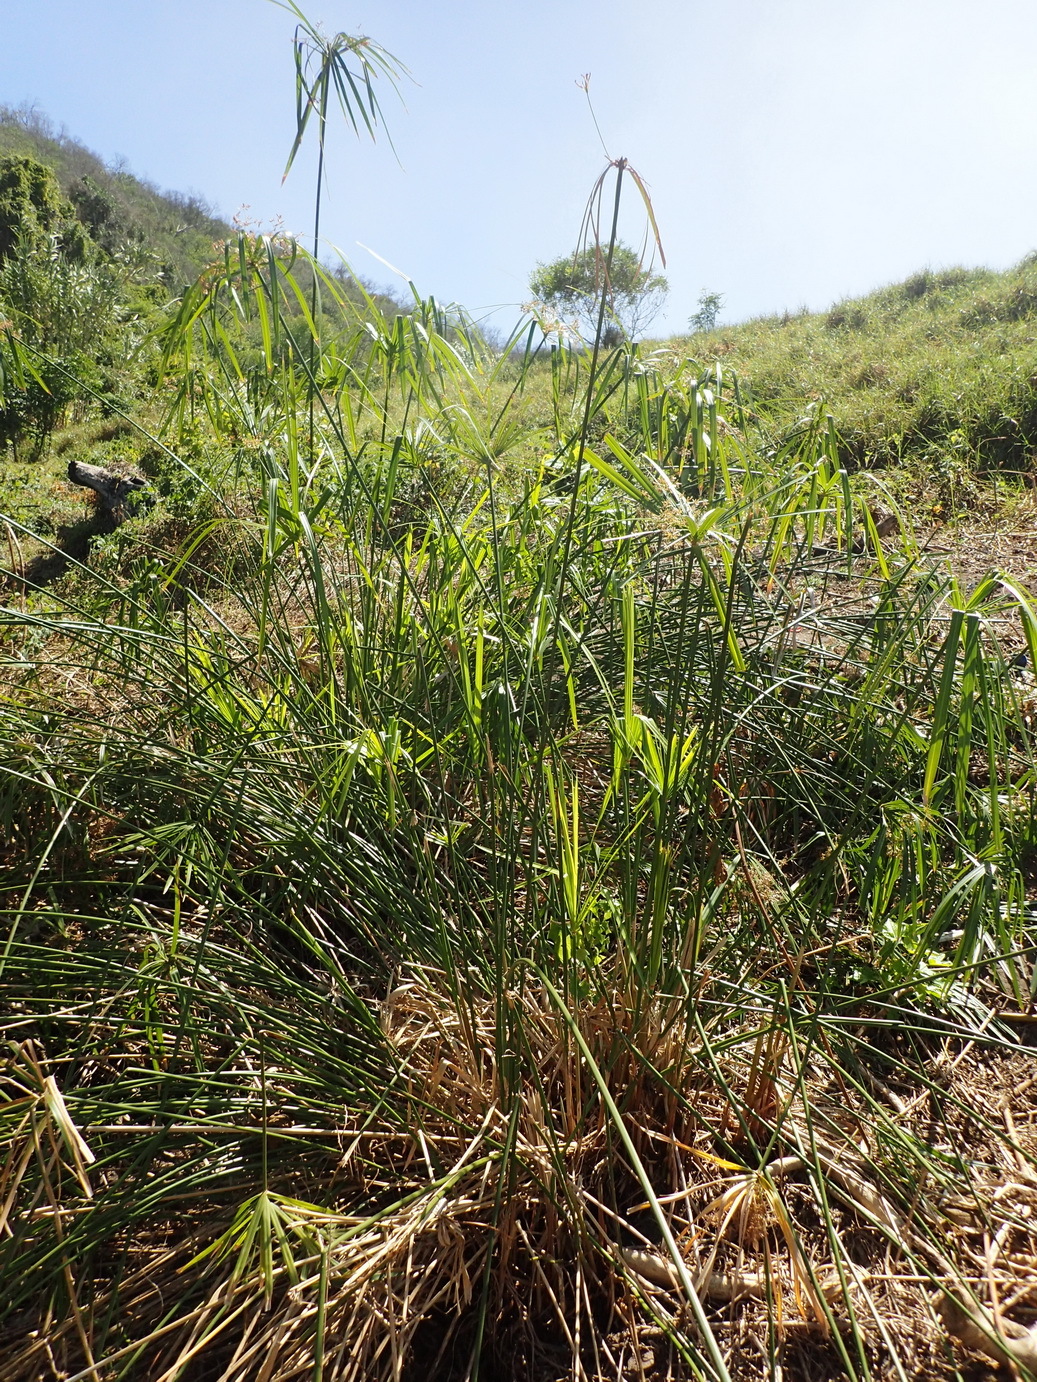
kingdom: Plantae
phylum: Tracheophyta
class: Liliopsida
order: Poales
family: Cyperaceae
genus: Cyperus
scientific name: Cyperus textilis
